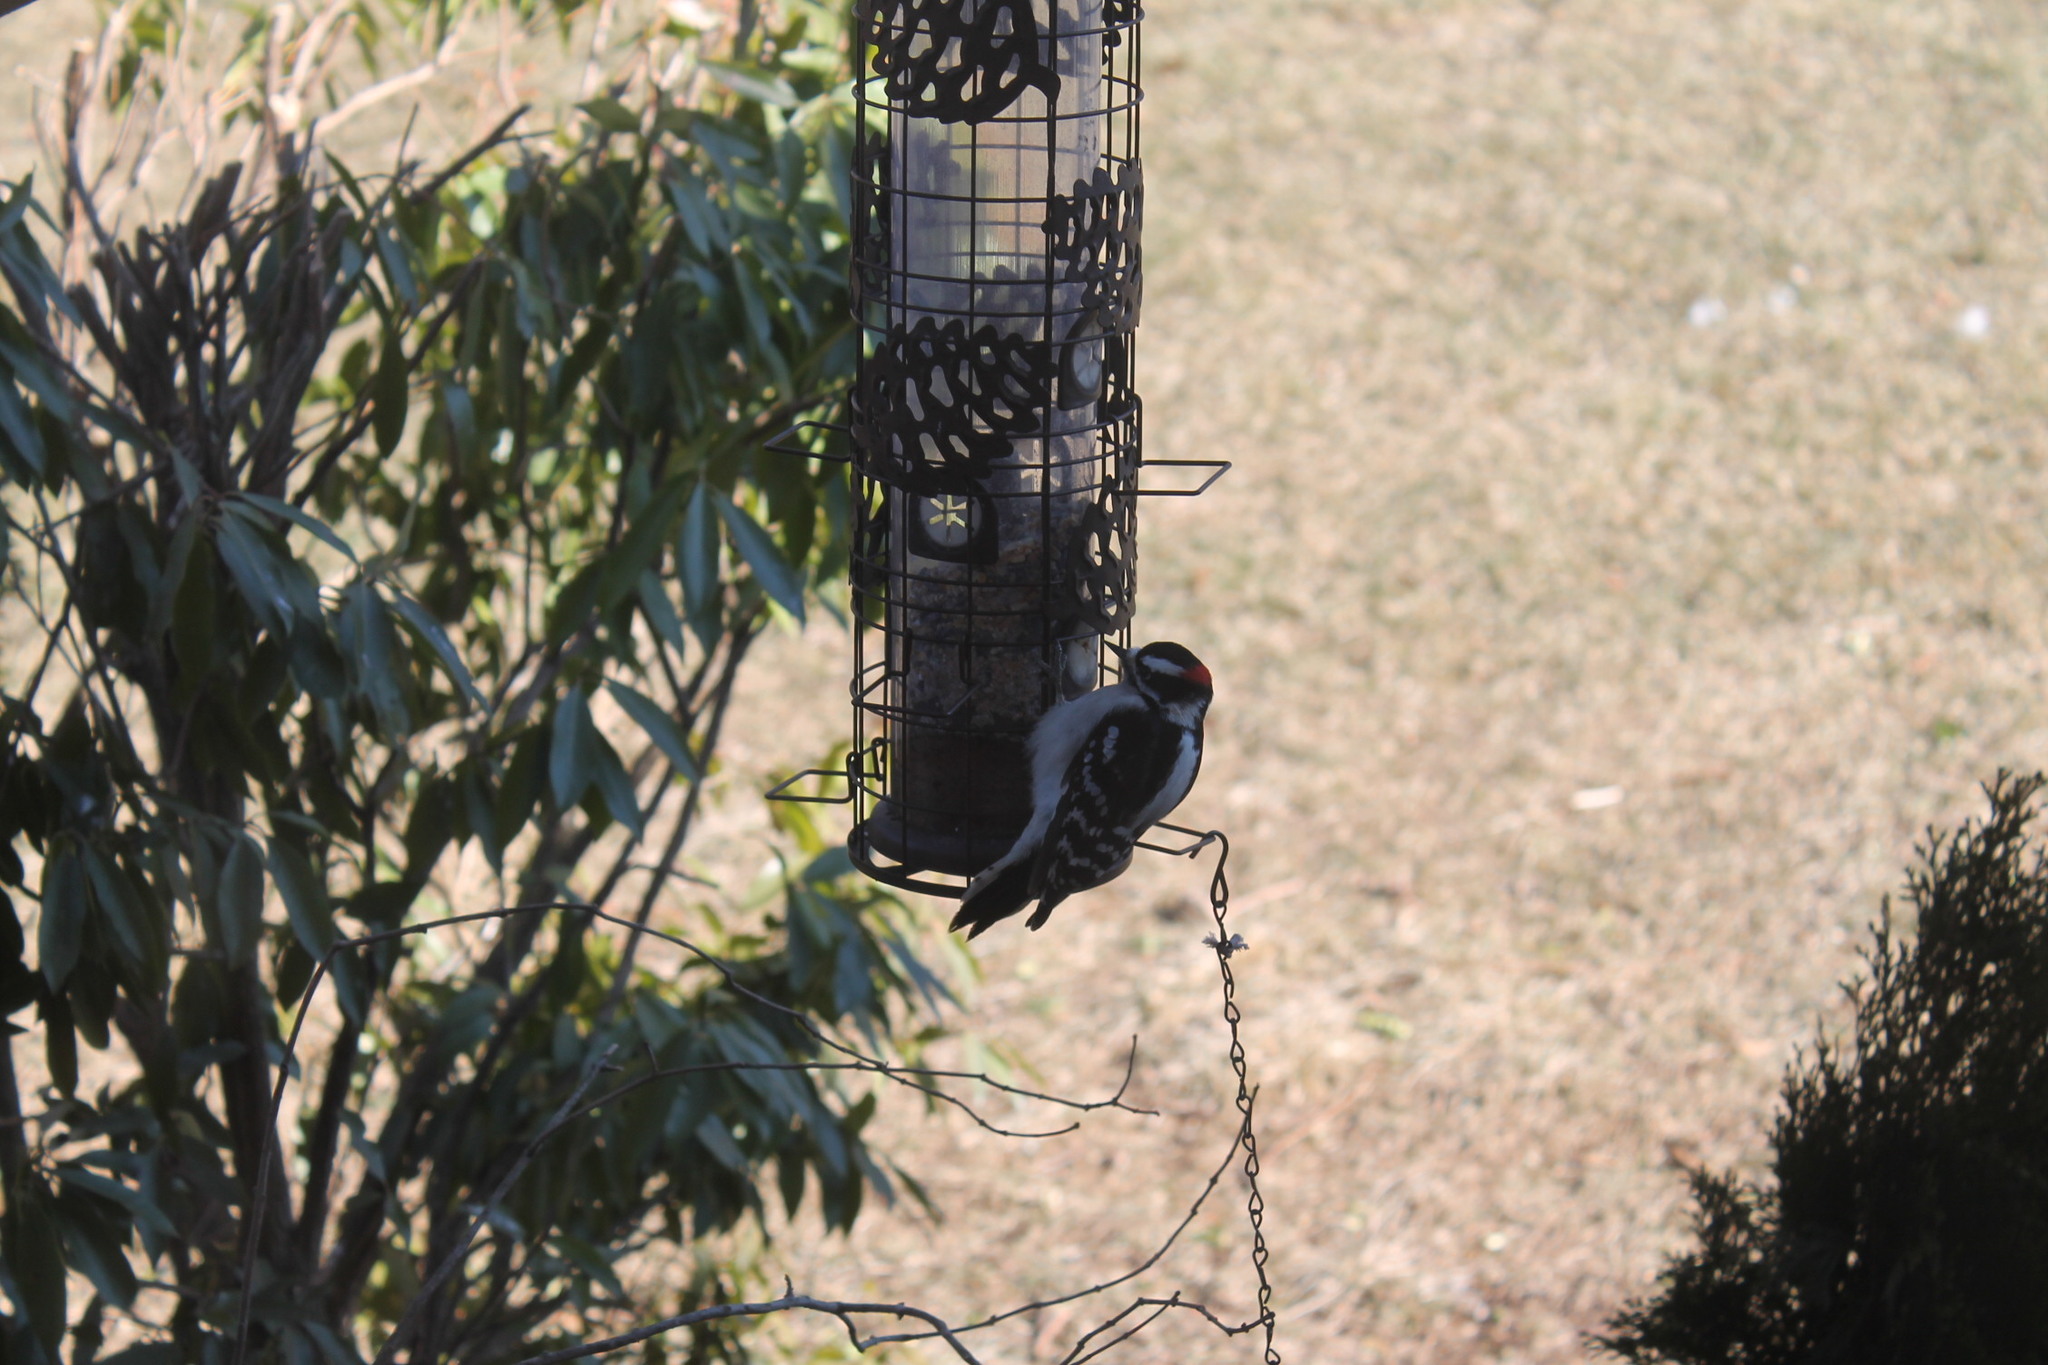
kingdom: Animalia
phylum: Chordata
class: Aves
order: Piciformes
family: Picidae
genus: Dryobates
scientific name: Dryobates pubescens
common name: Downy woodpecker
